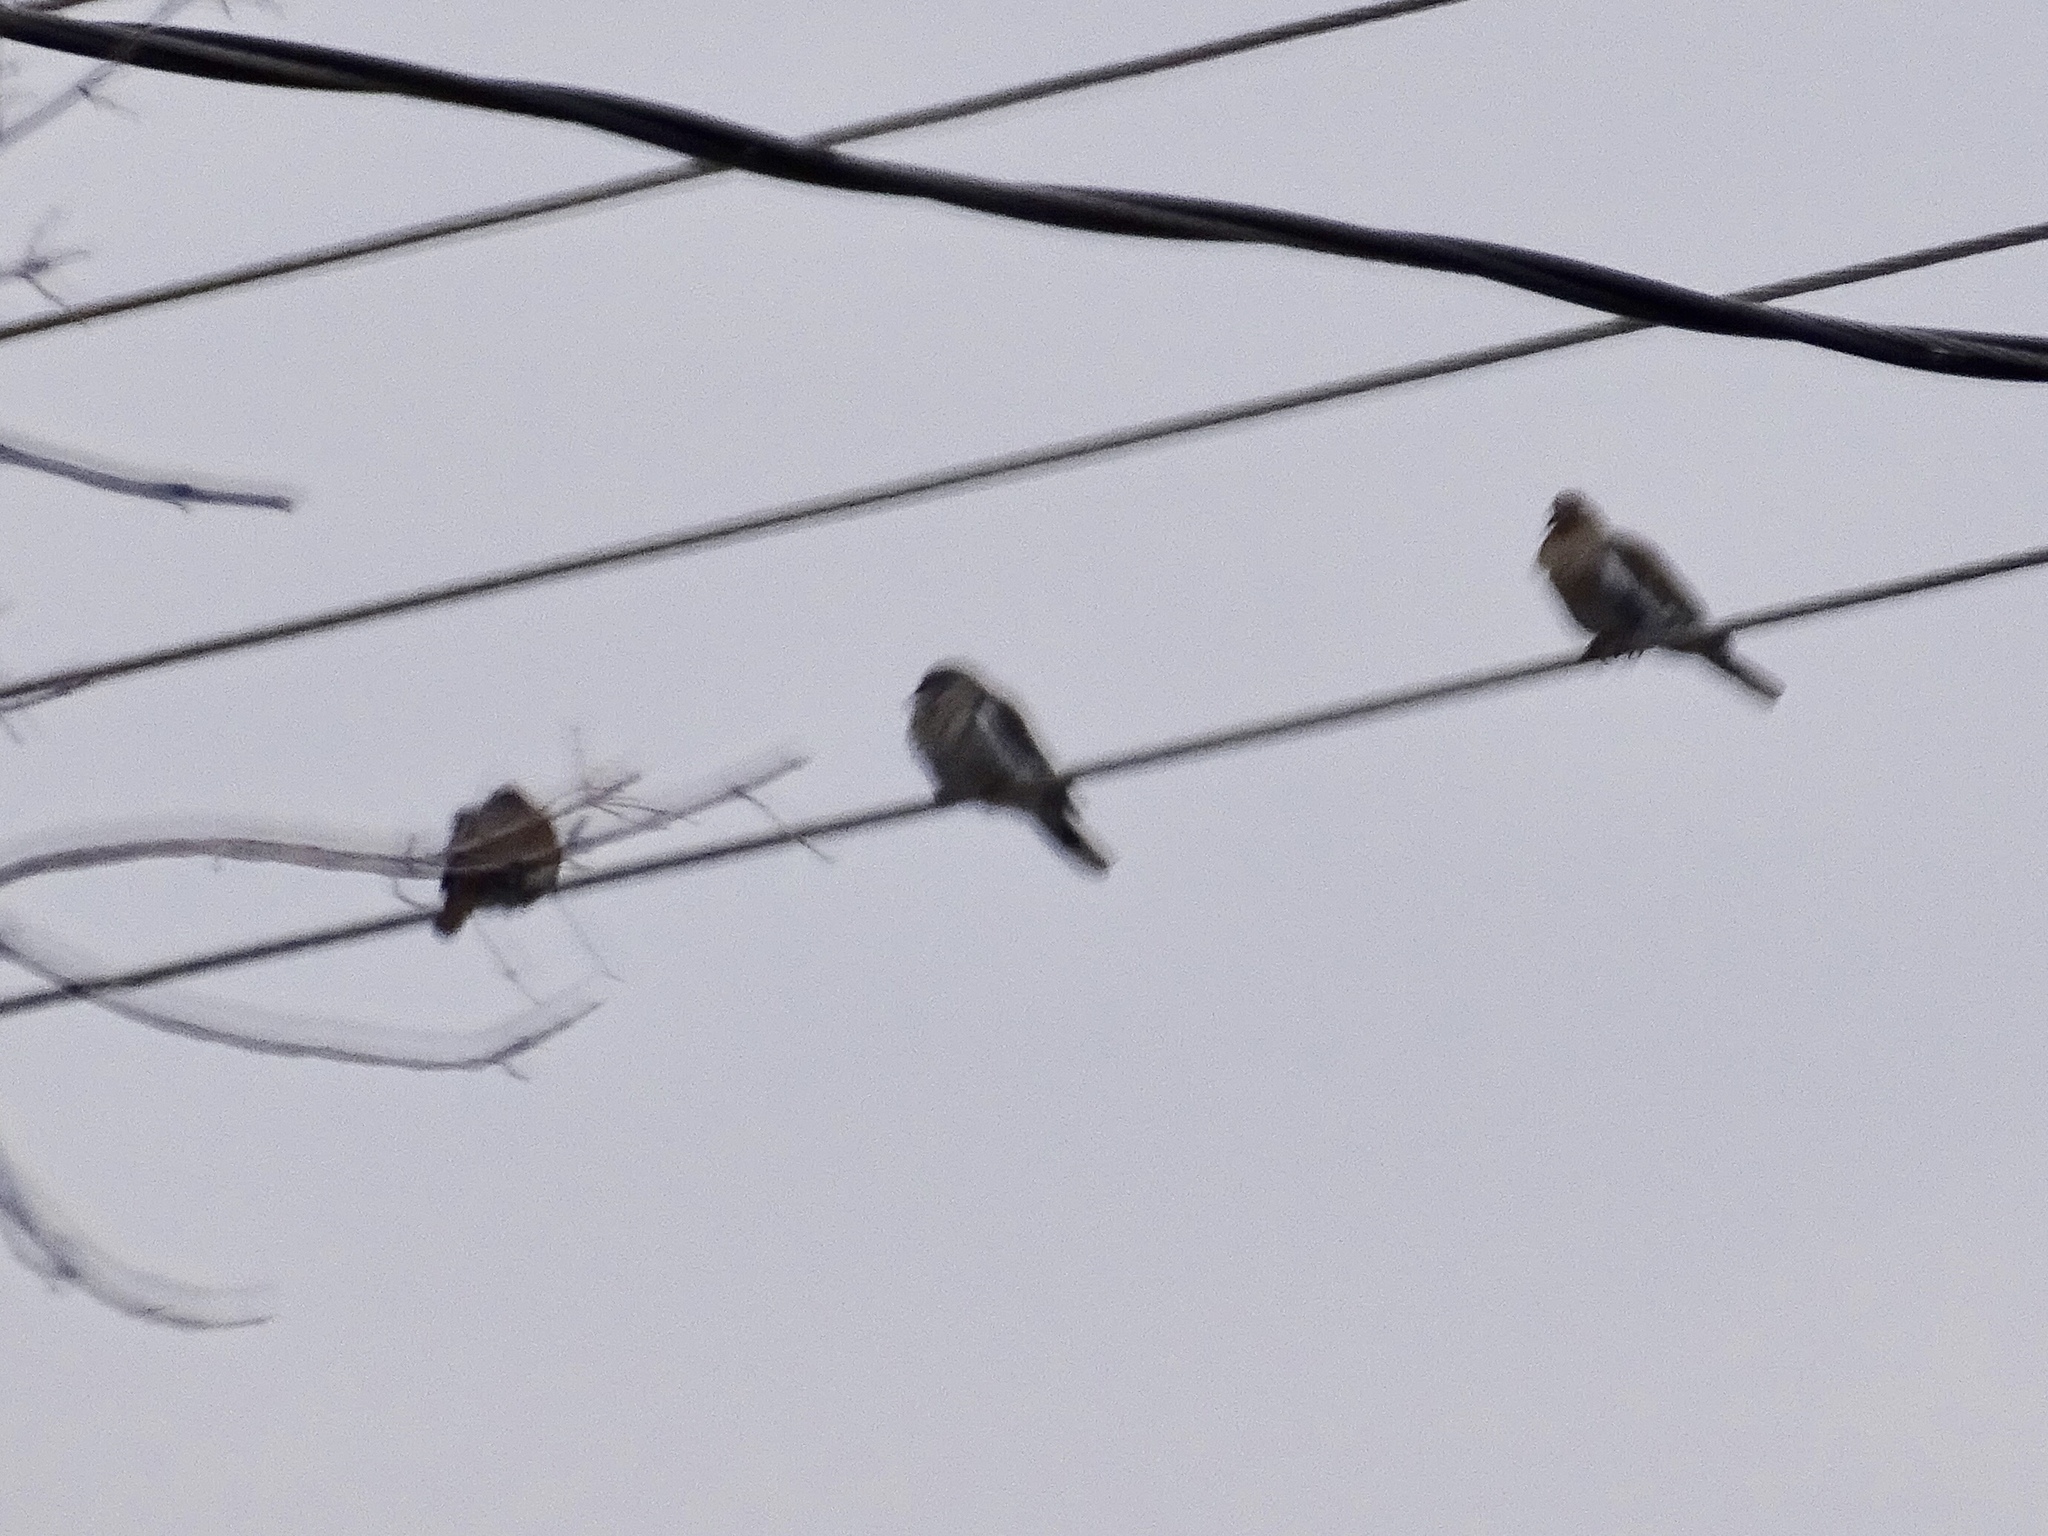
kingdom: Animalia
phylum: Chordata
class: Aves
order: Columbiformes
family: Columbidae
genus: Zenaida
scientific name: Zenaida asiatica
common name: White-winged dove
